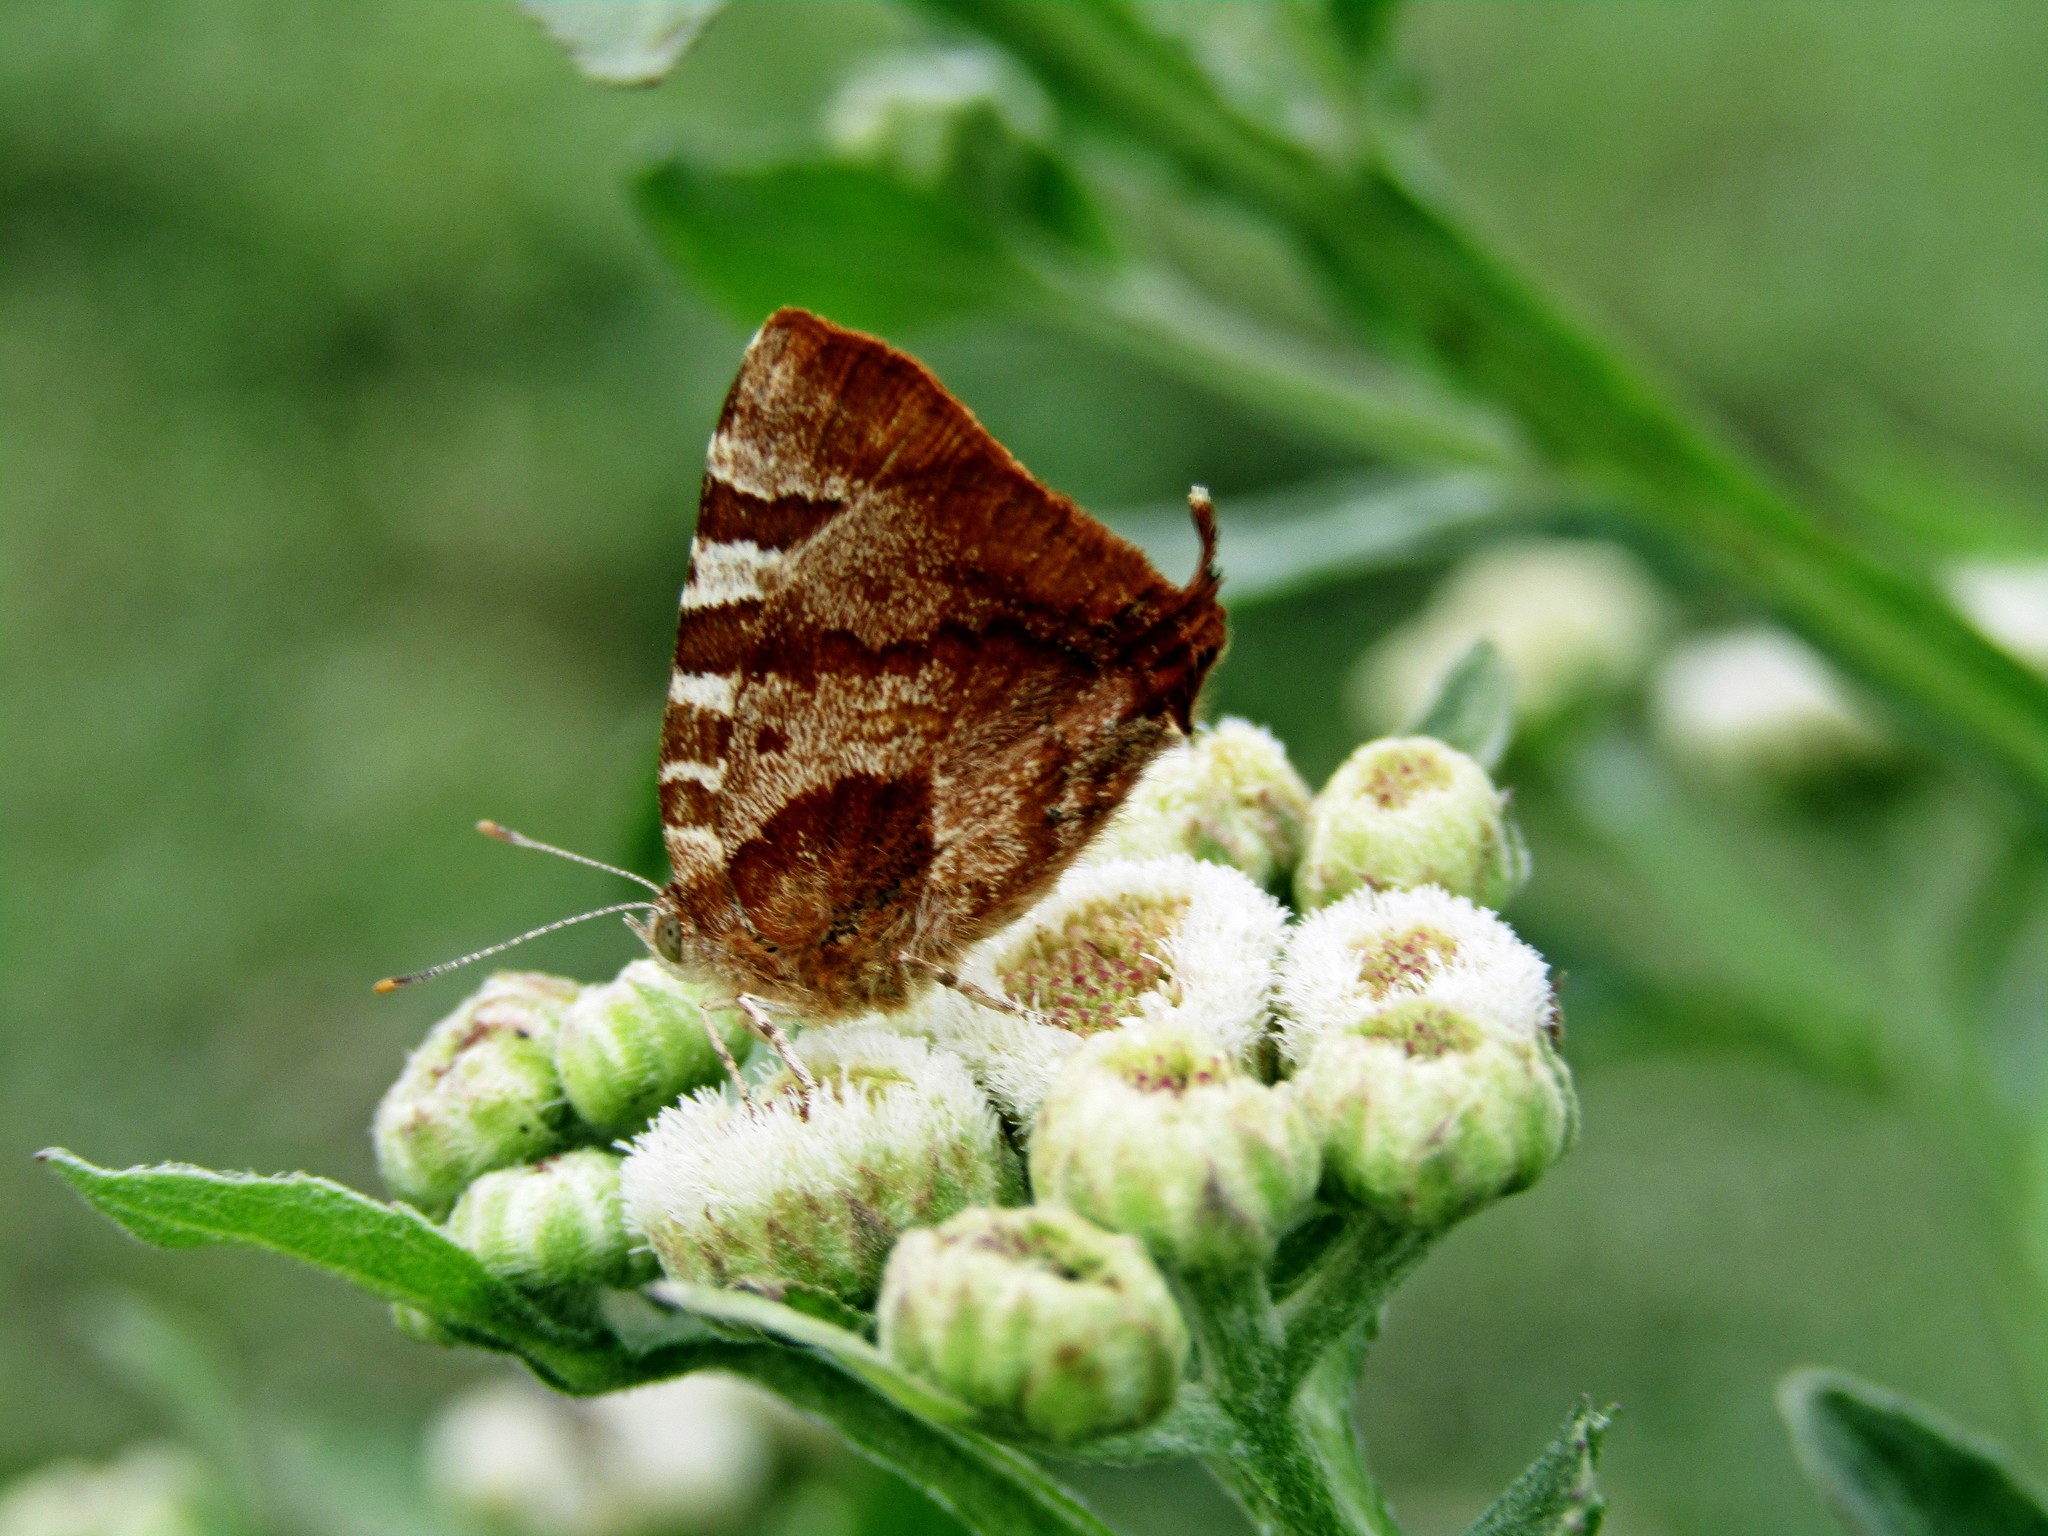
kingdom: Animalia
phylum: Arthropoda
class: Insecta
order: Lepidoptera
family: Lycaenidae
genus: Arawacus
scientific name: Arawacus ellida
